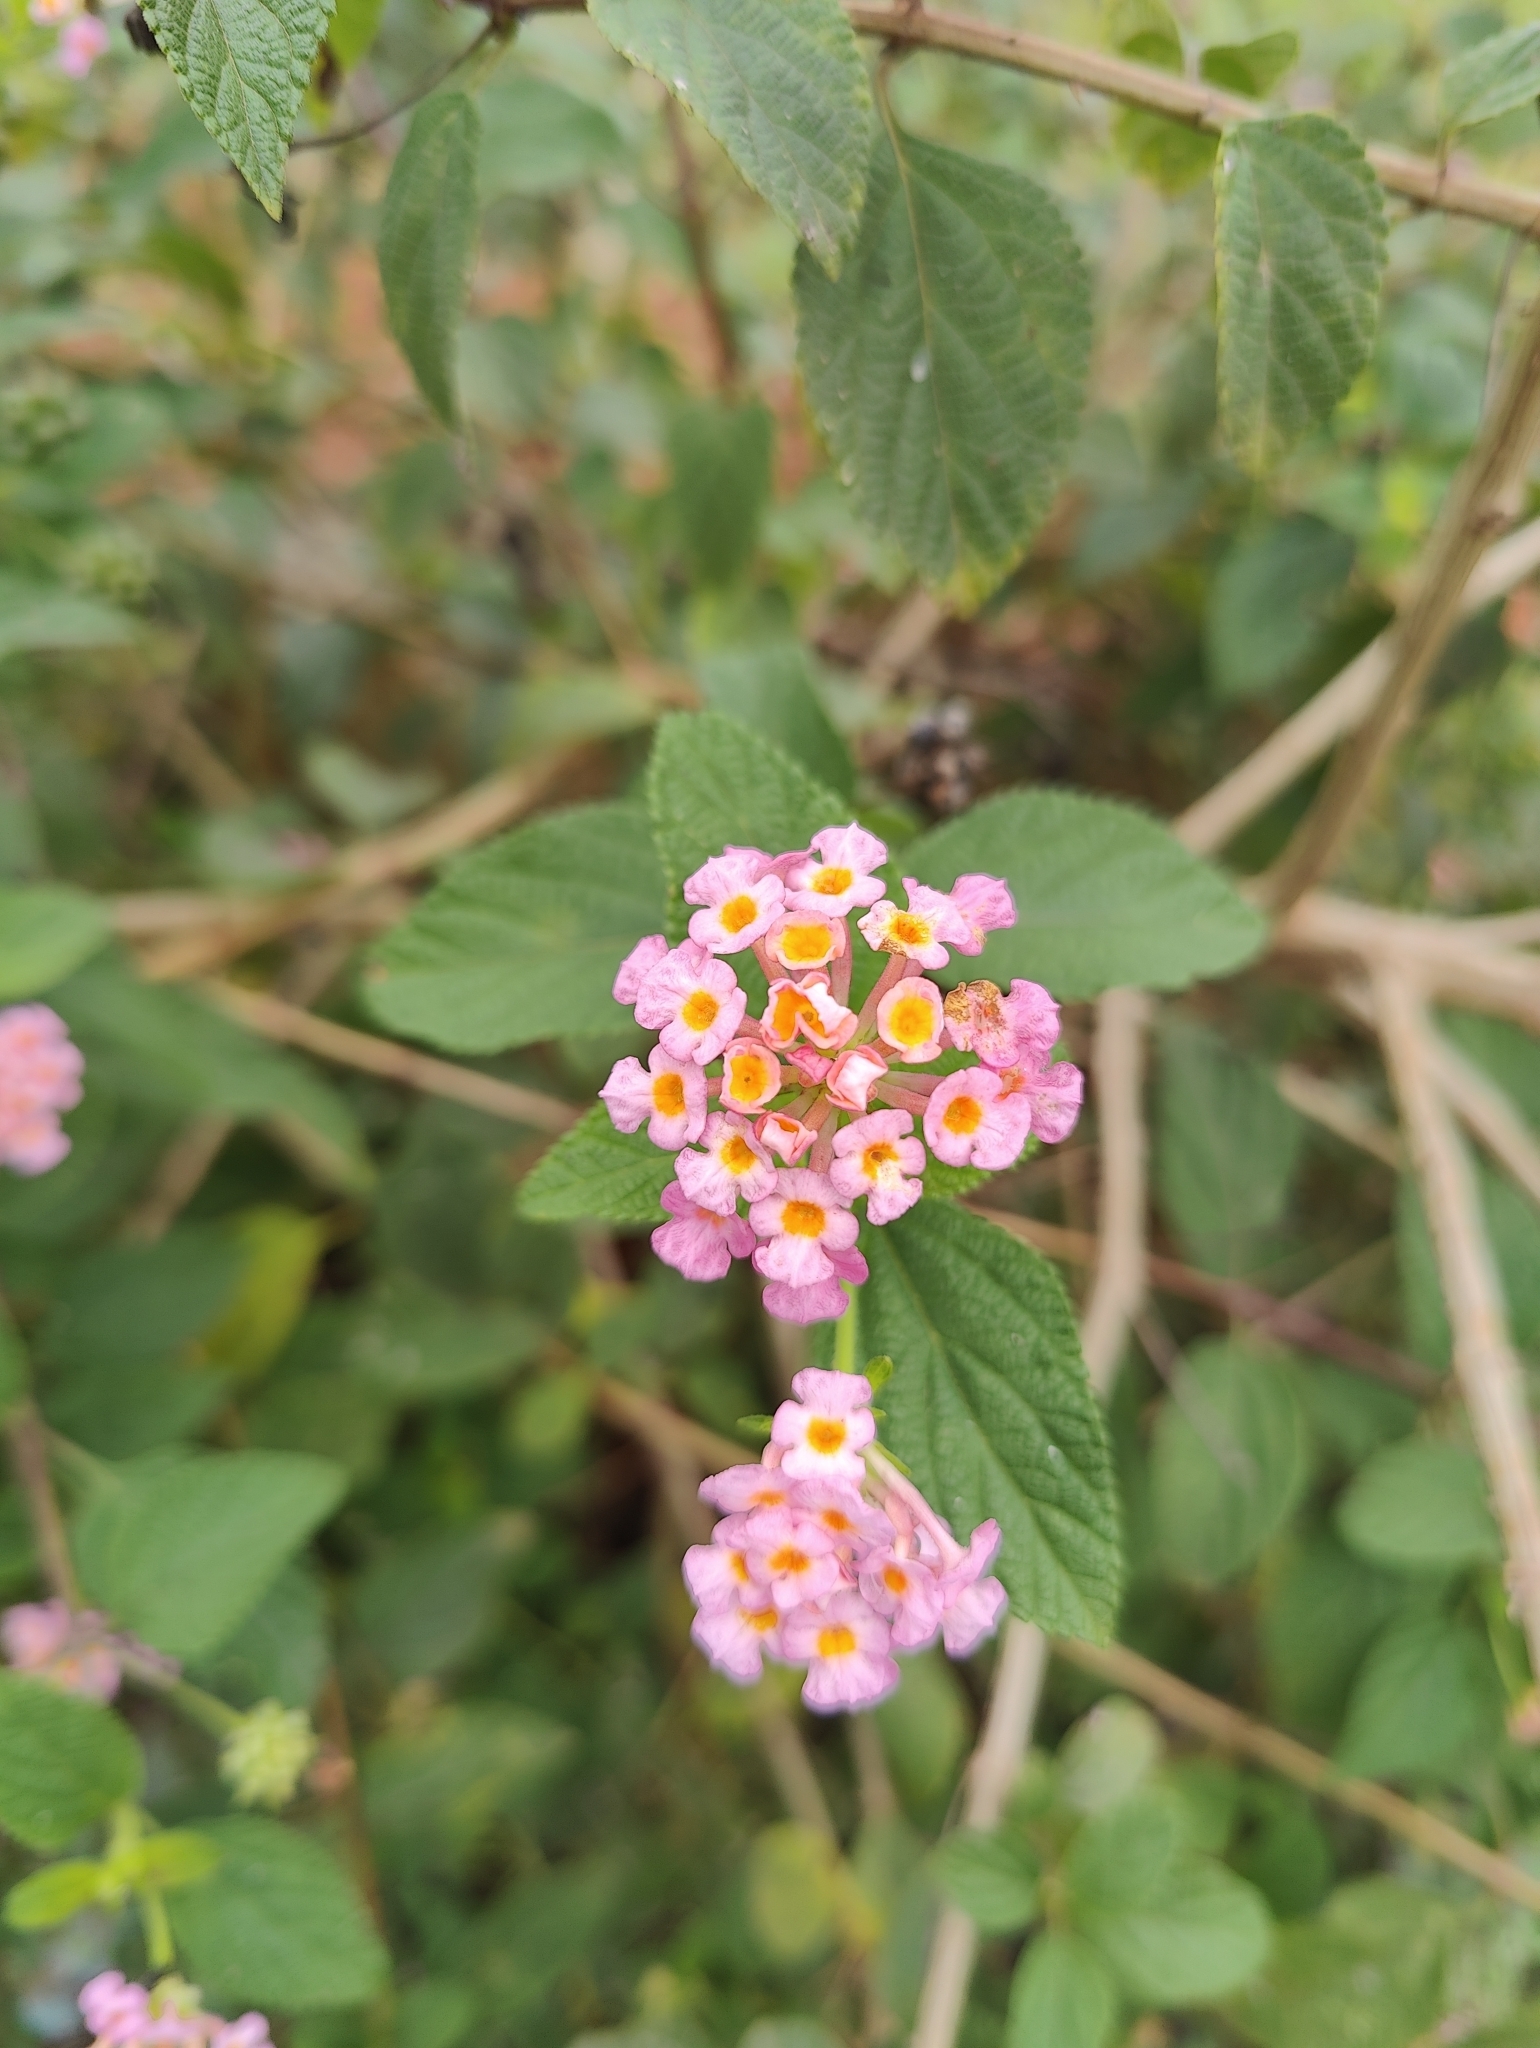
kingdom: Plantae
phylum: Tracheophyta
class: Magnoliopsida
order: Lamiales
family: Verbenaceae
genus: Lantana
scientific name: Lantana camara
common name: Lantana
